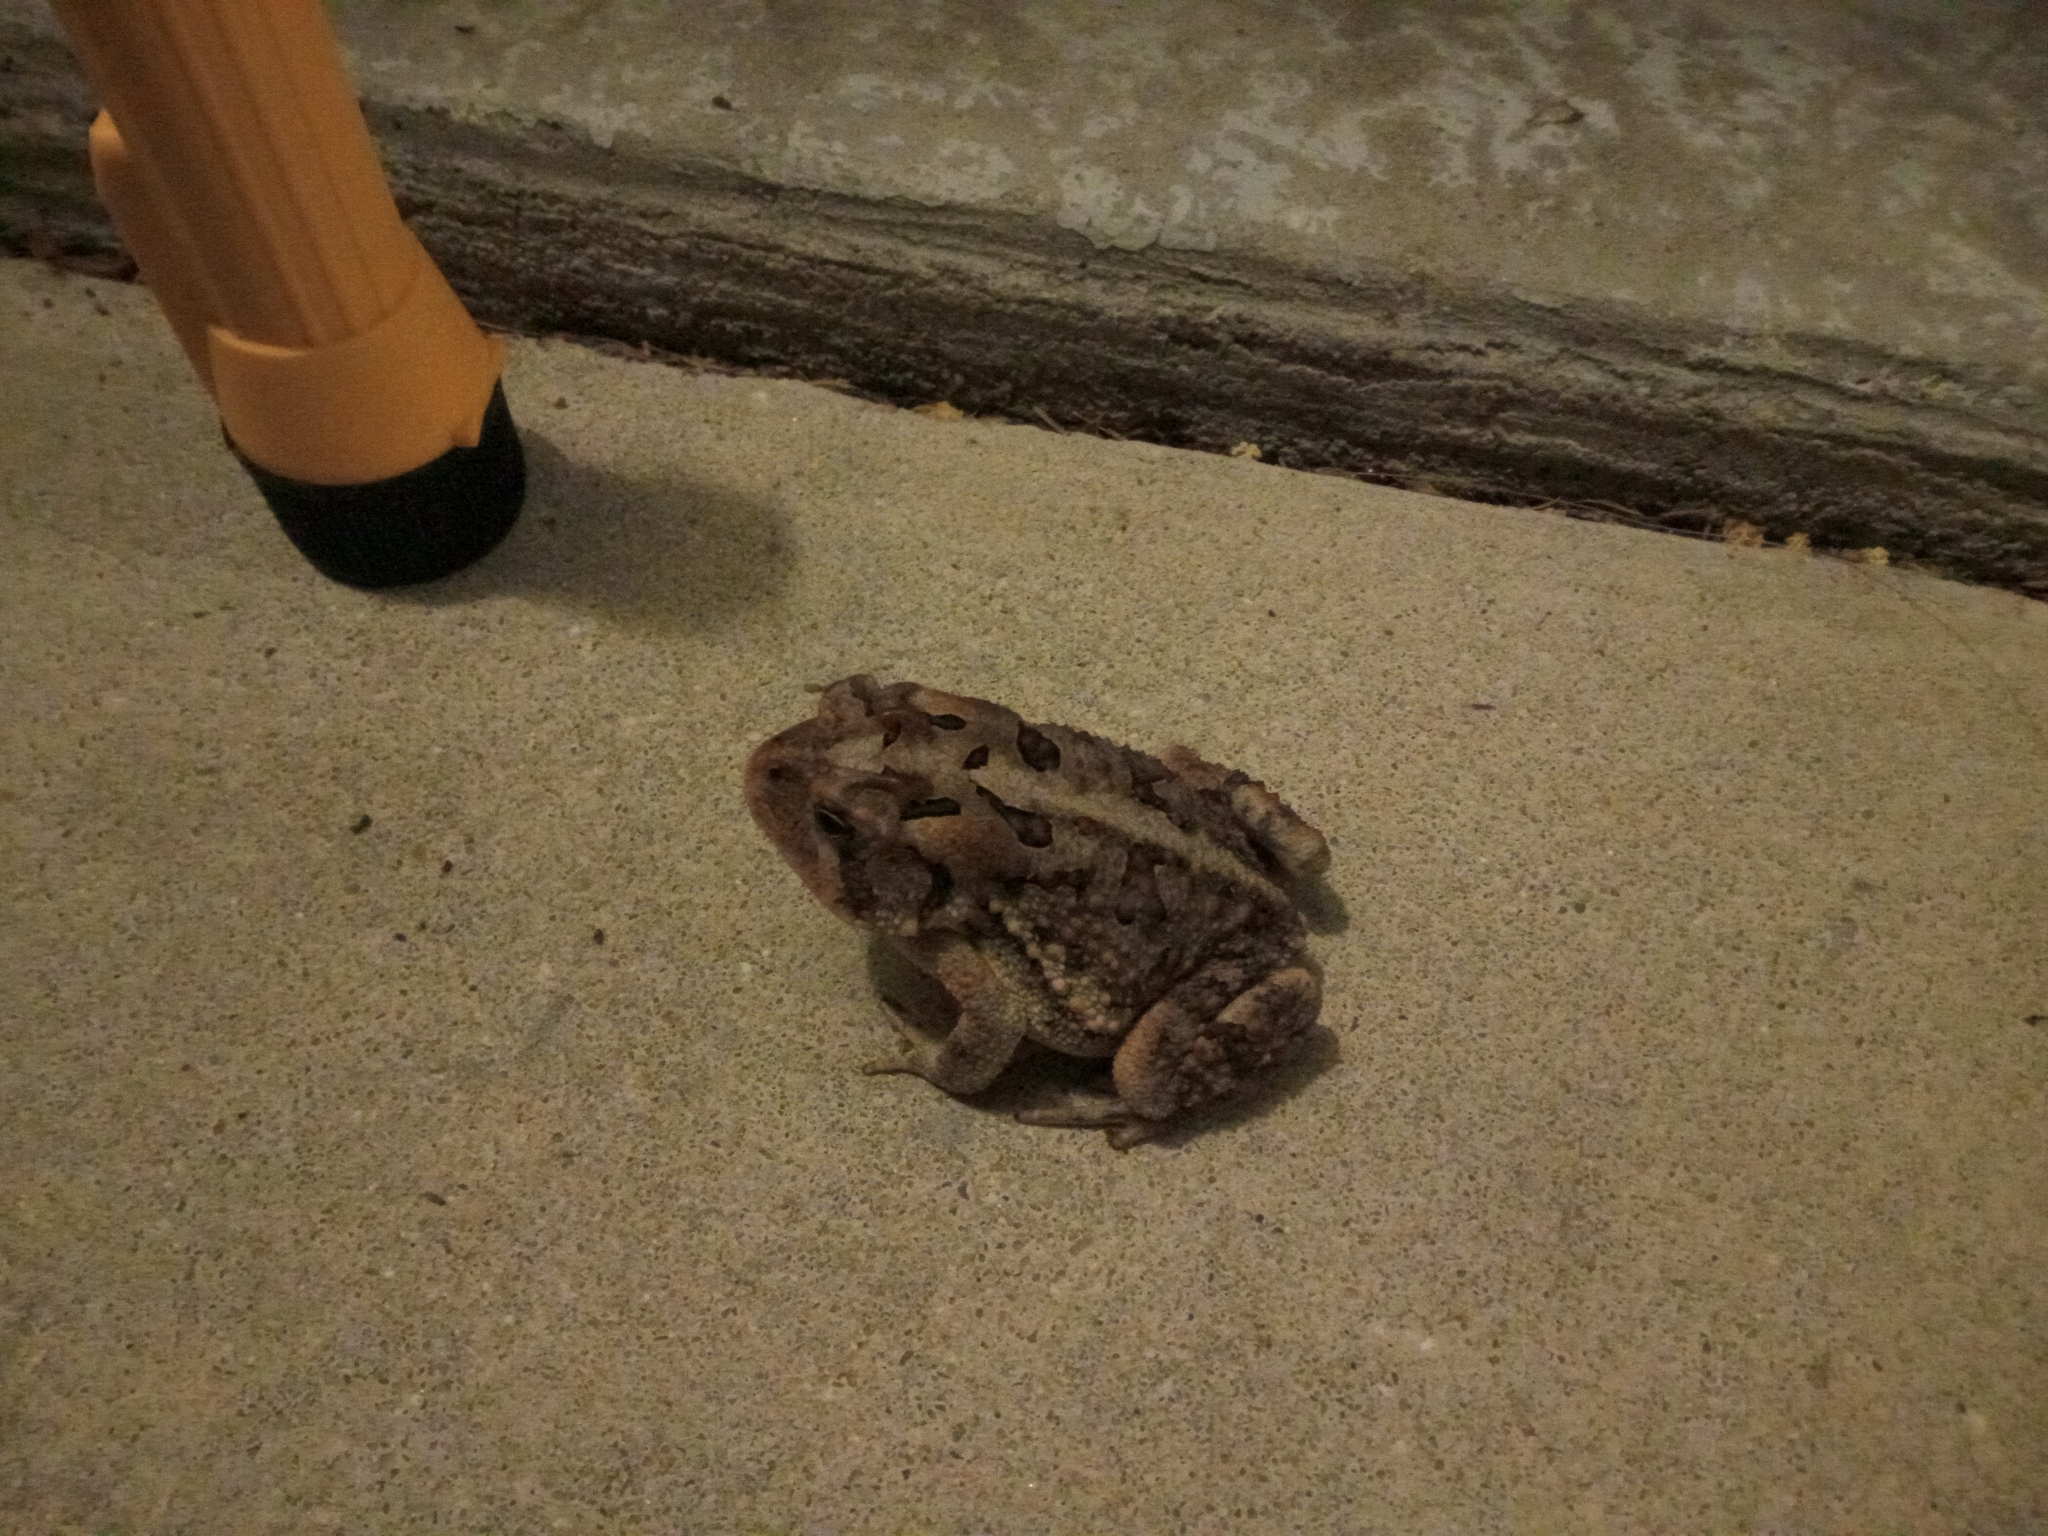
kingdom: Animalia
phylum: Chordata
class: Amphibia
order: Anura
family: Bufonidae
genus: Anaxyrus
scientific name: Anaxyrus terrestris
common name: Southern toad
